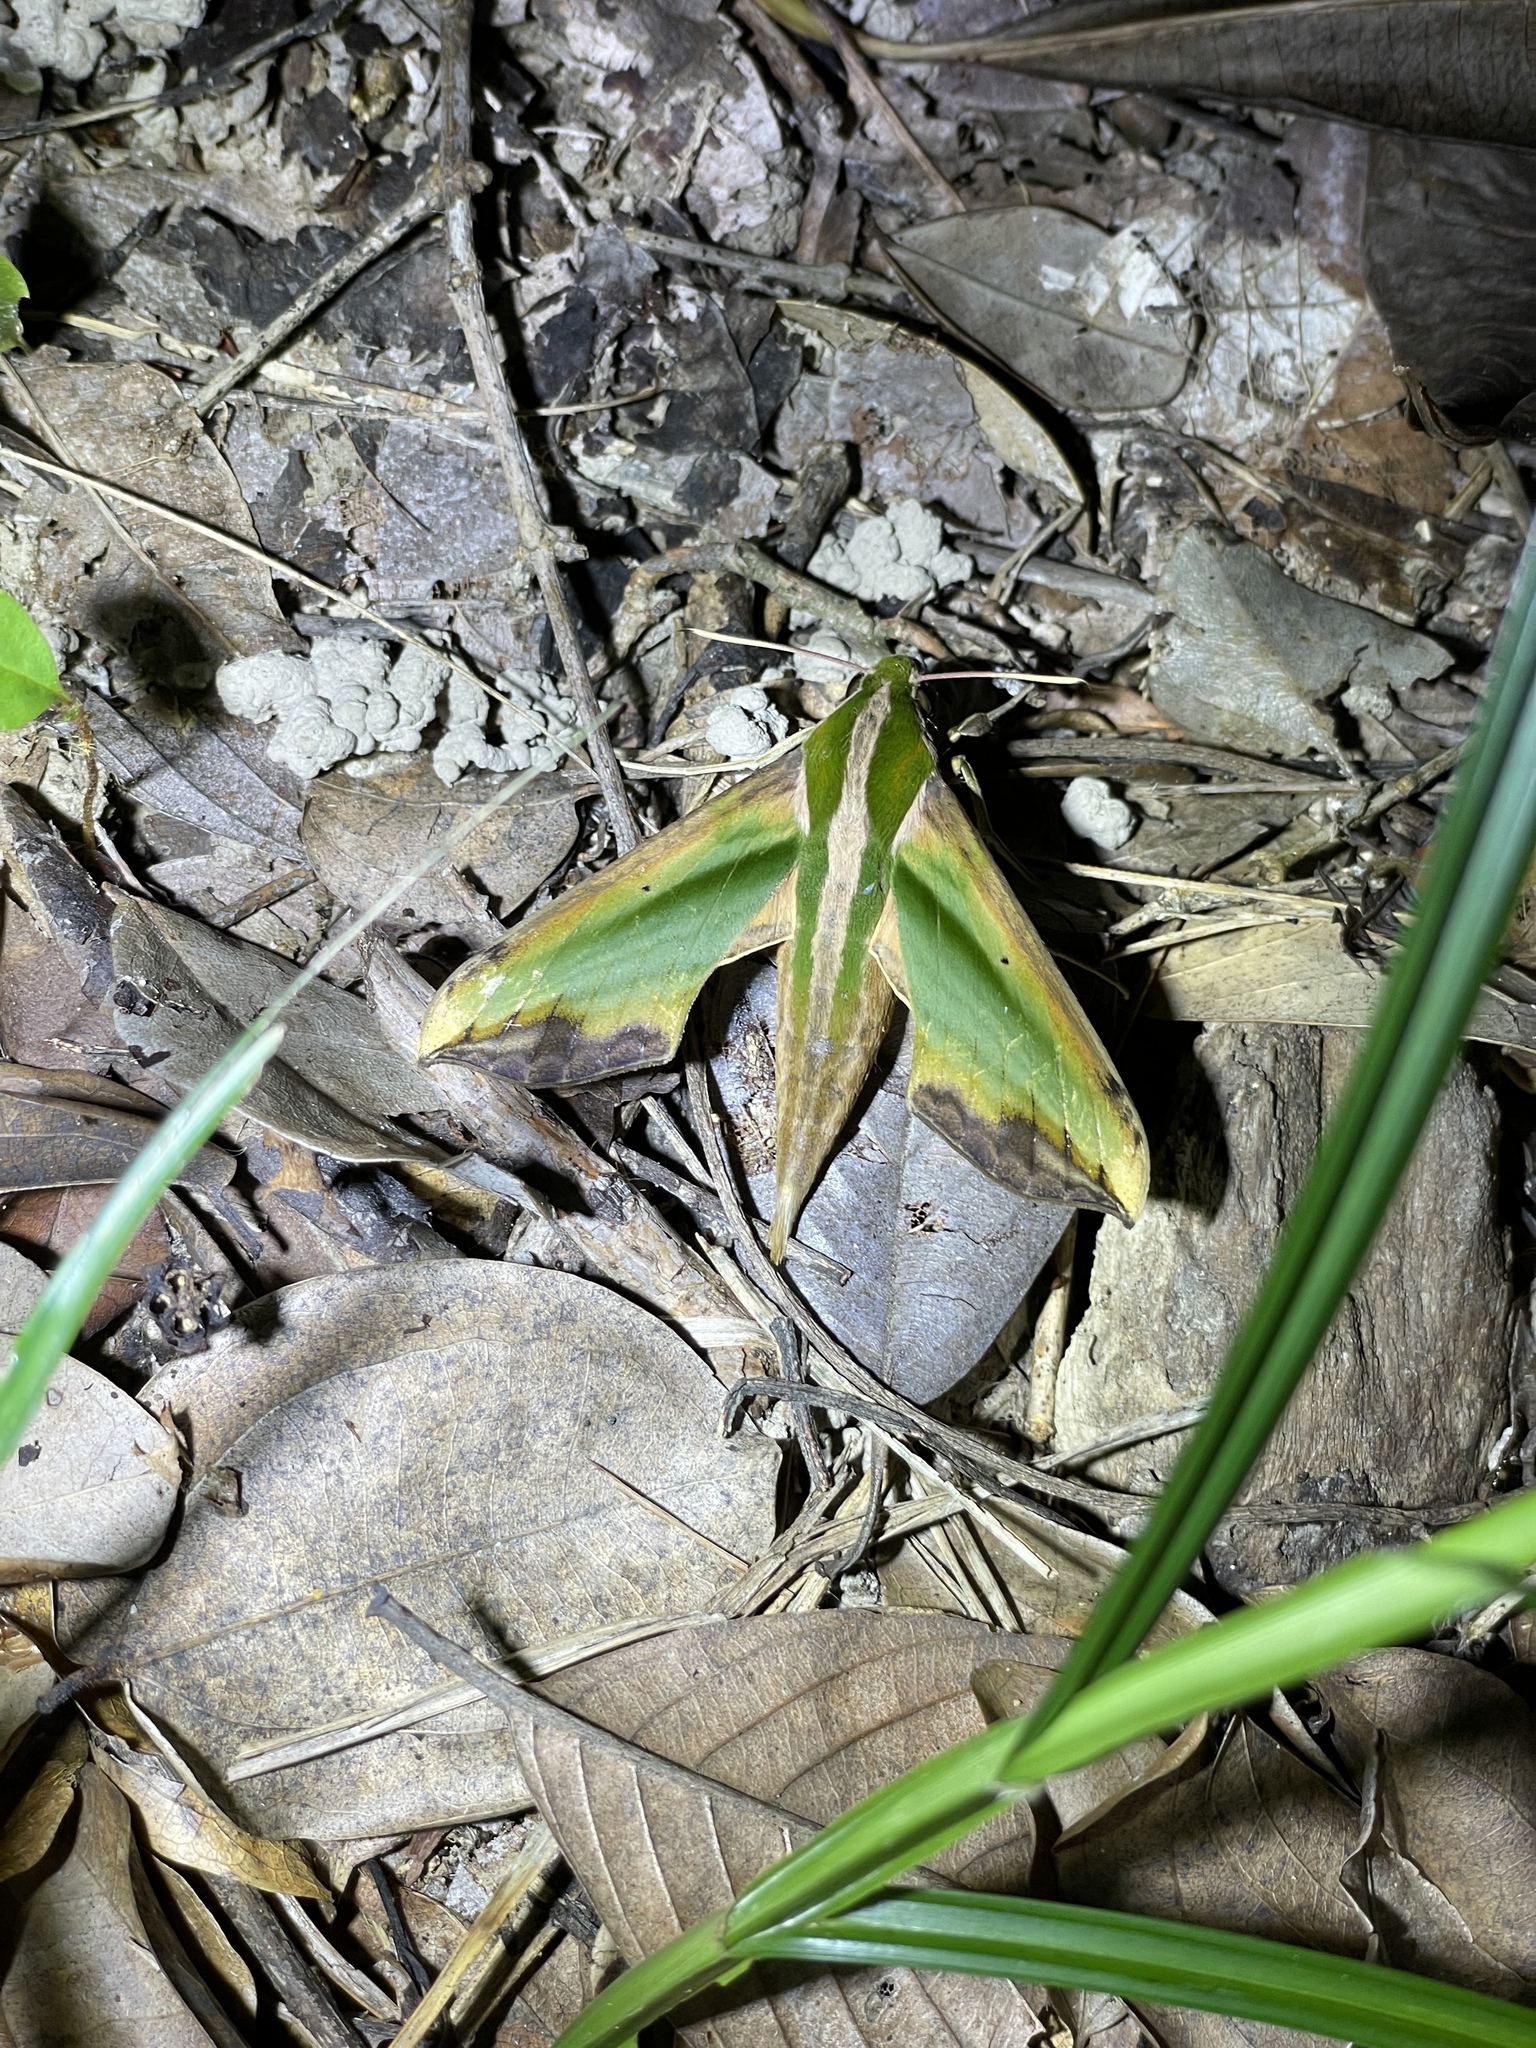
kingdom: Animalia
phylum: Arthropoda
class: Insecta
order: Lepidoptera
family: Sphingidae
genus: Pergesa
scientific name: Pergesa acteus
